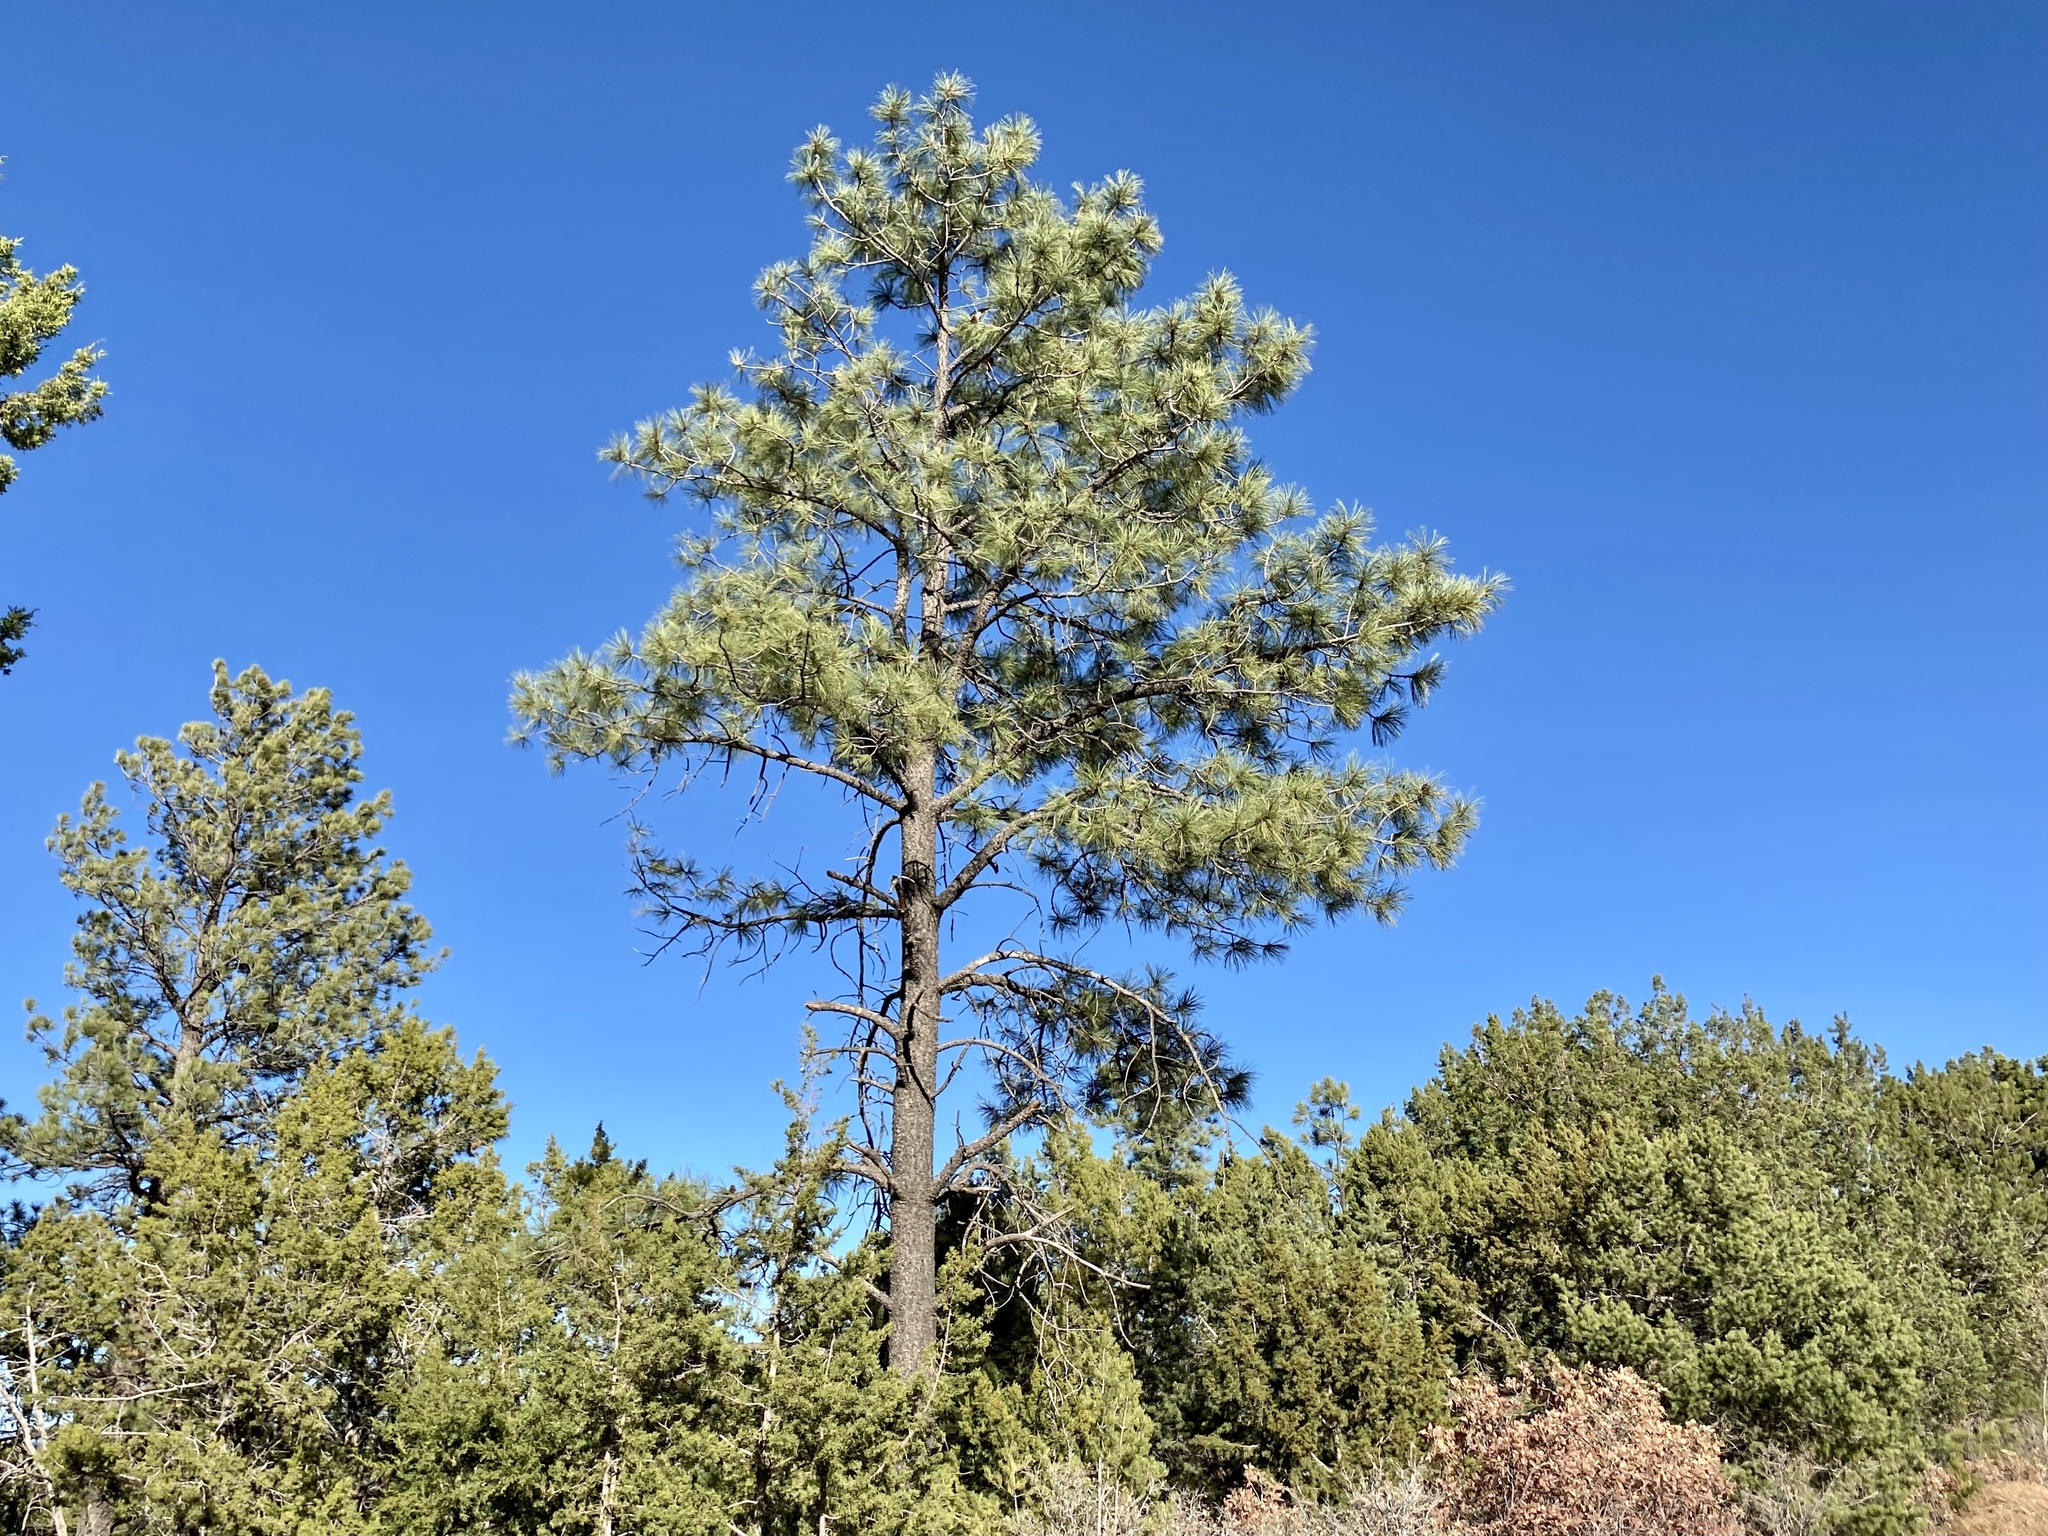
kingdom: Plantae
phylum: Tracheophyta
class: Pinopsida
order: Pinales
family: Pinaceae
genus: Pinus
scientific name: Pinus ponderosa
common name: Western yellow-pine
